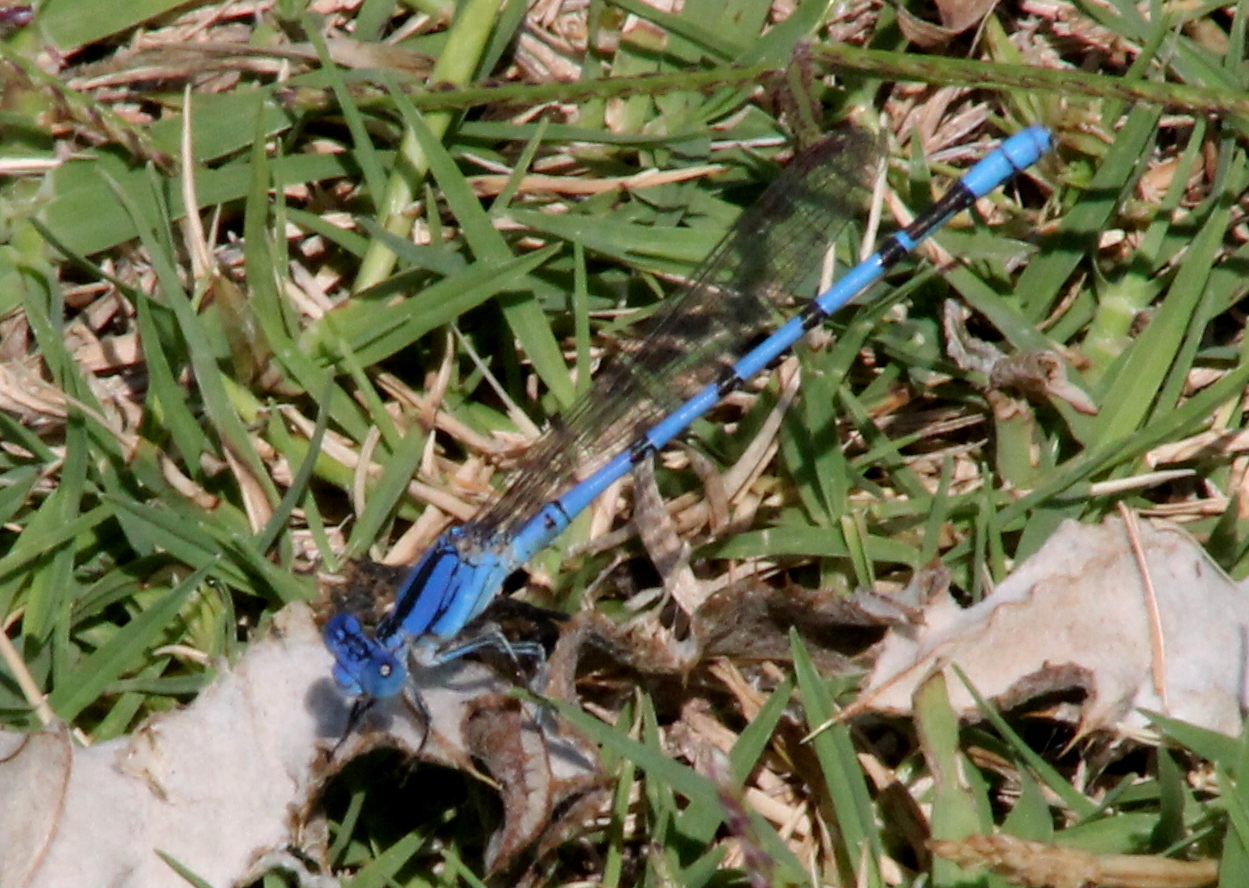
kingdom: Animalia
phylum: Arthropoda
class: Insecta
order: Odonata
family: Coenagrionidae
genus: Argia
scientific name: Argia nahuana
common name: Aztec dancer
